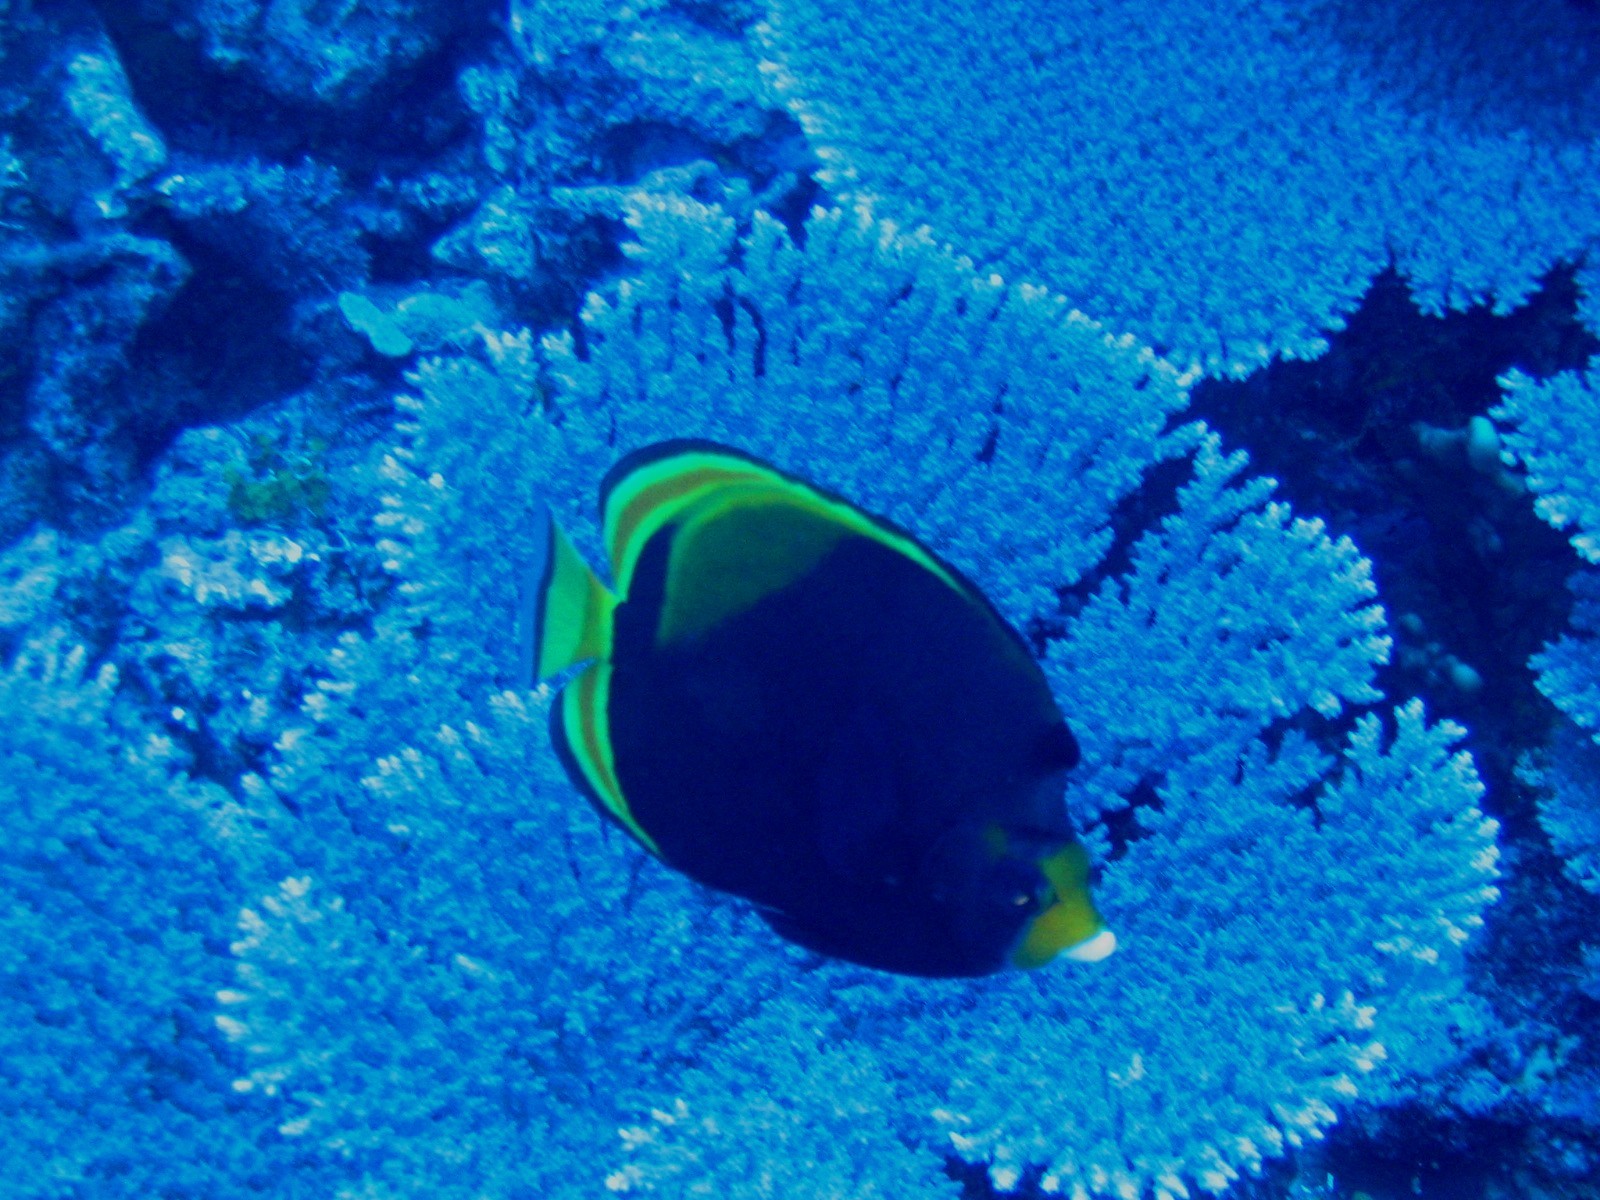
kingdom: Animalia
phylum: Chordata
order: Perciformes
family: Chaetodontidae
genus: Chaetodon
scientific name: Chaetodon flavirostris
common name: Black butterflyfish
